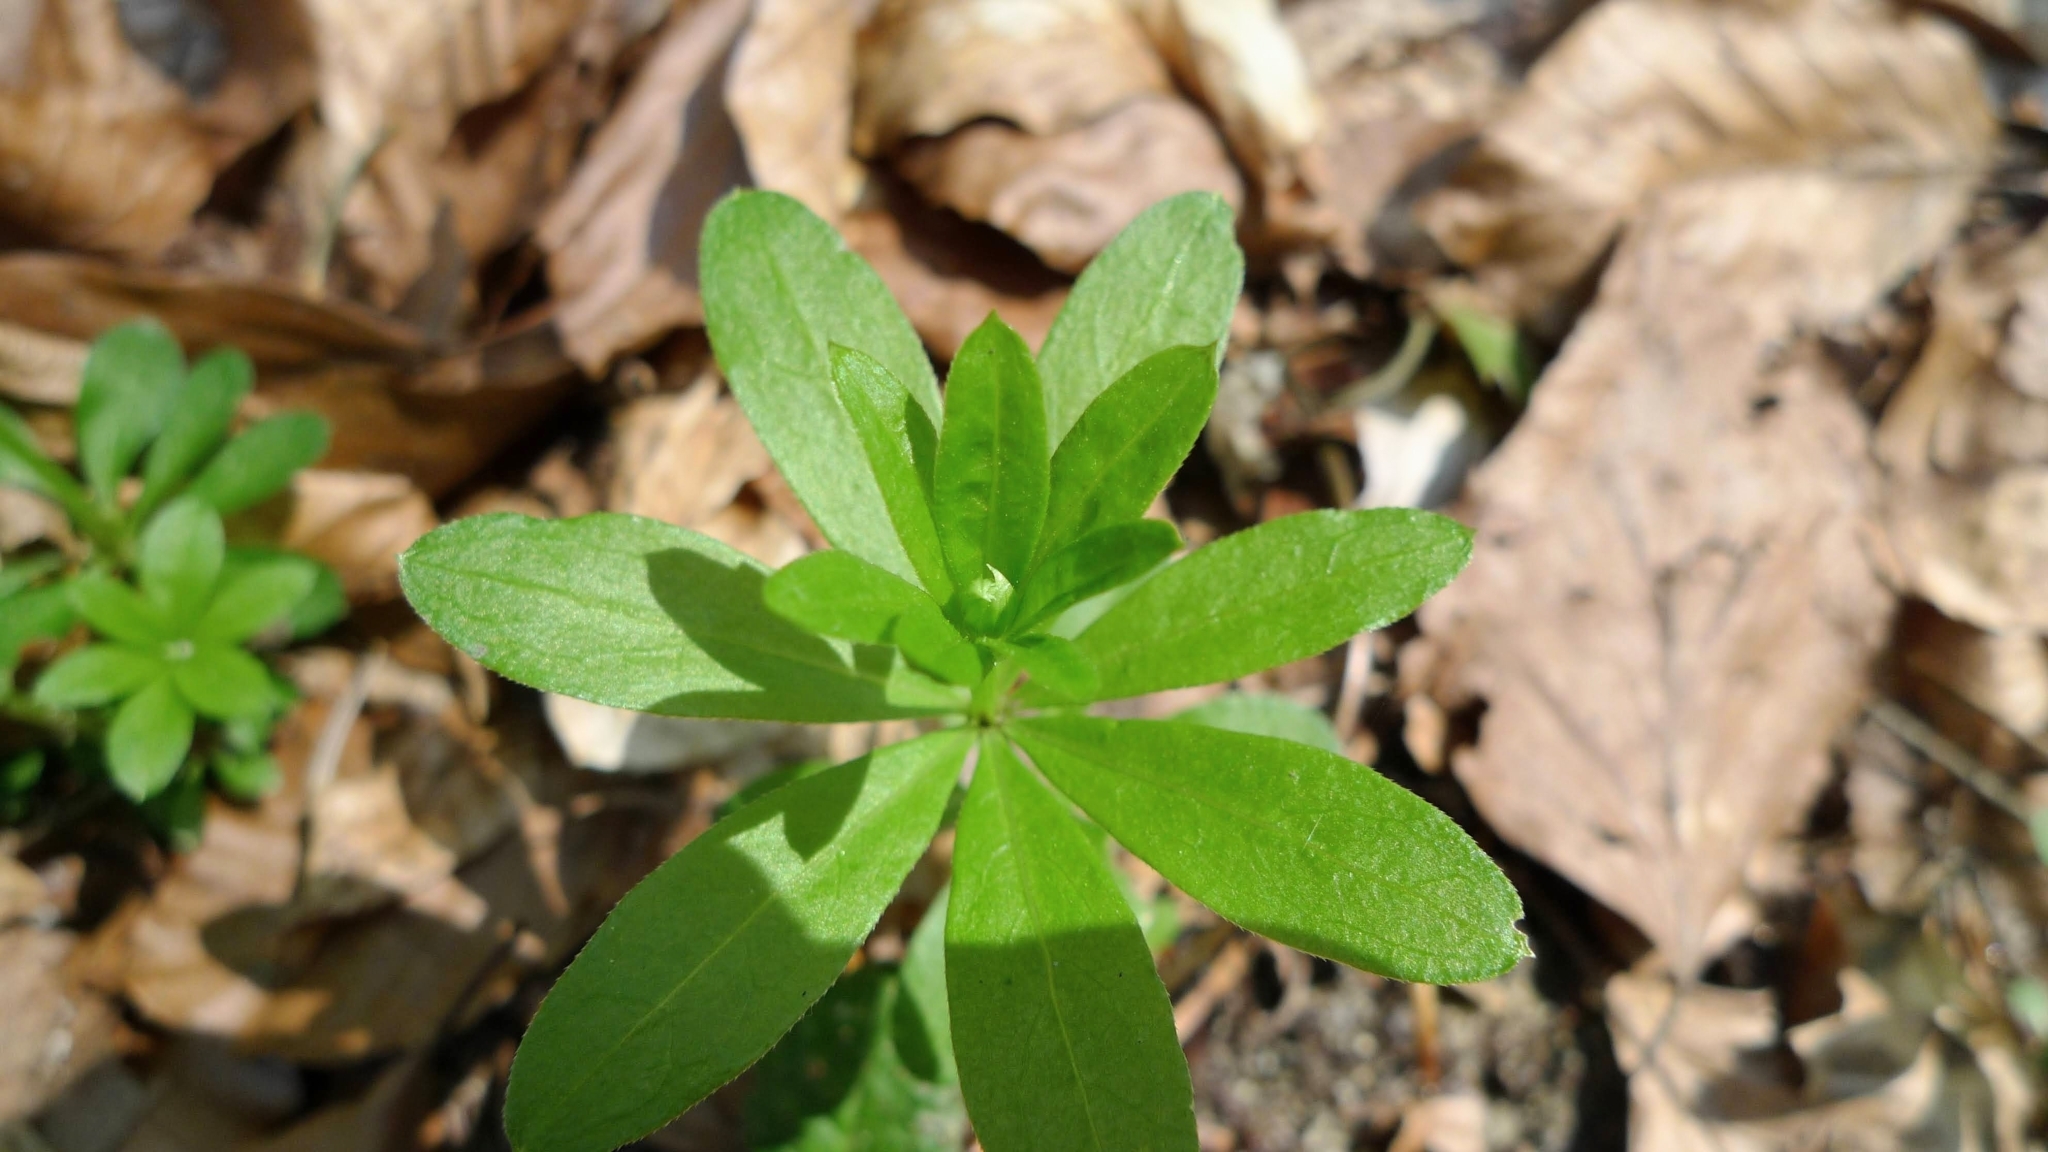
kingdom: Plantae
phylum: Tracheophyta
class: Magnoliopsida
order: Gentianales
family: Rubiaceae
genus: Galium
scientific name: Galium odoratum
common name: Sweet woodruff
